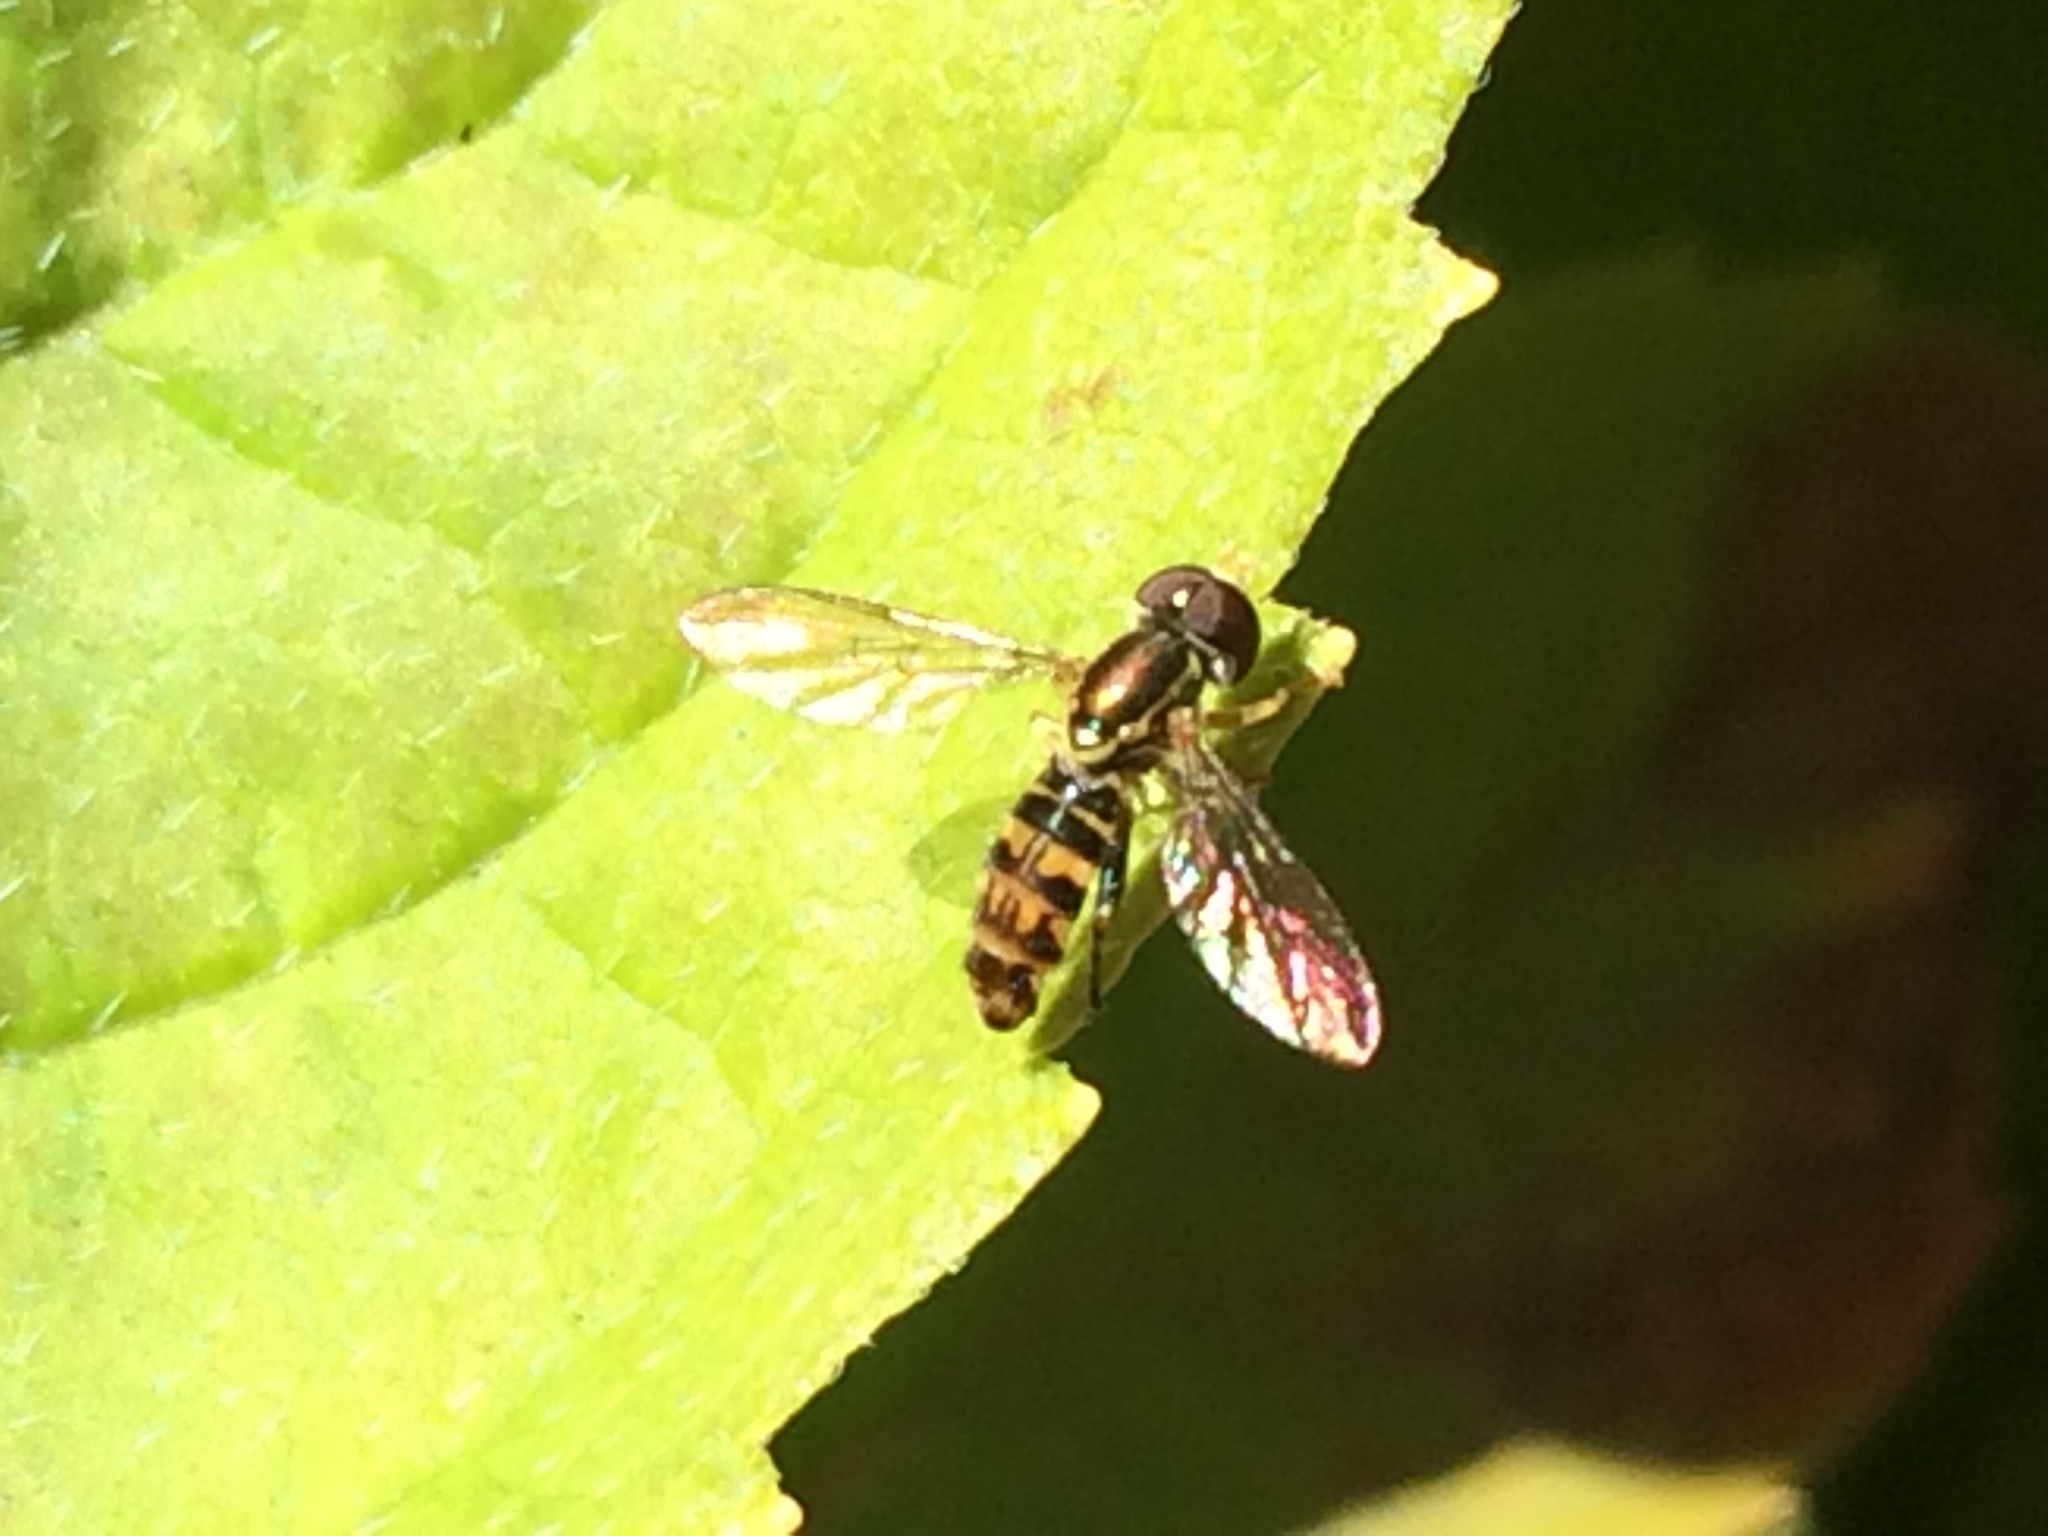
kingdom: Animalia
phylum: Arthropoda
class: Insecta
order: Diptera
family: Syrphidae
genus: Toxomerus
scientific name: Toxomerus occidentalis
